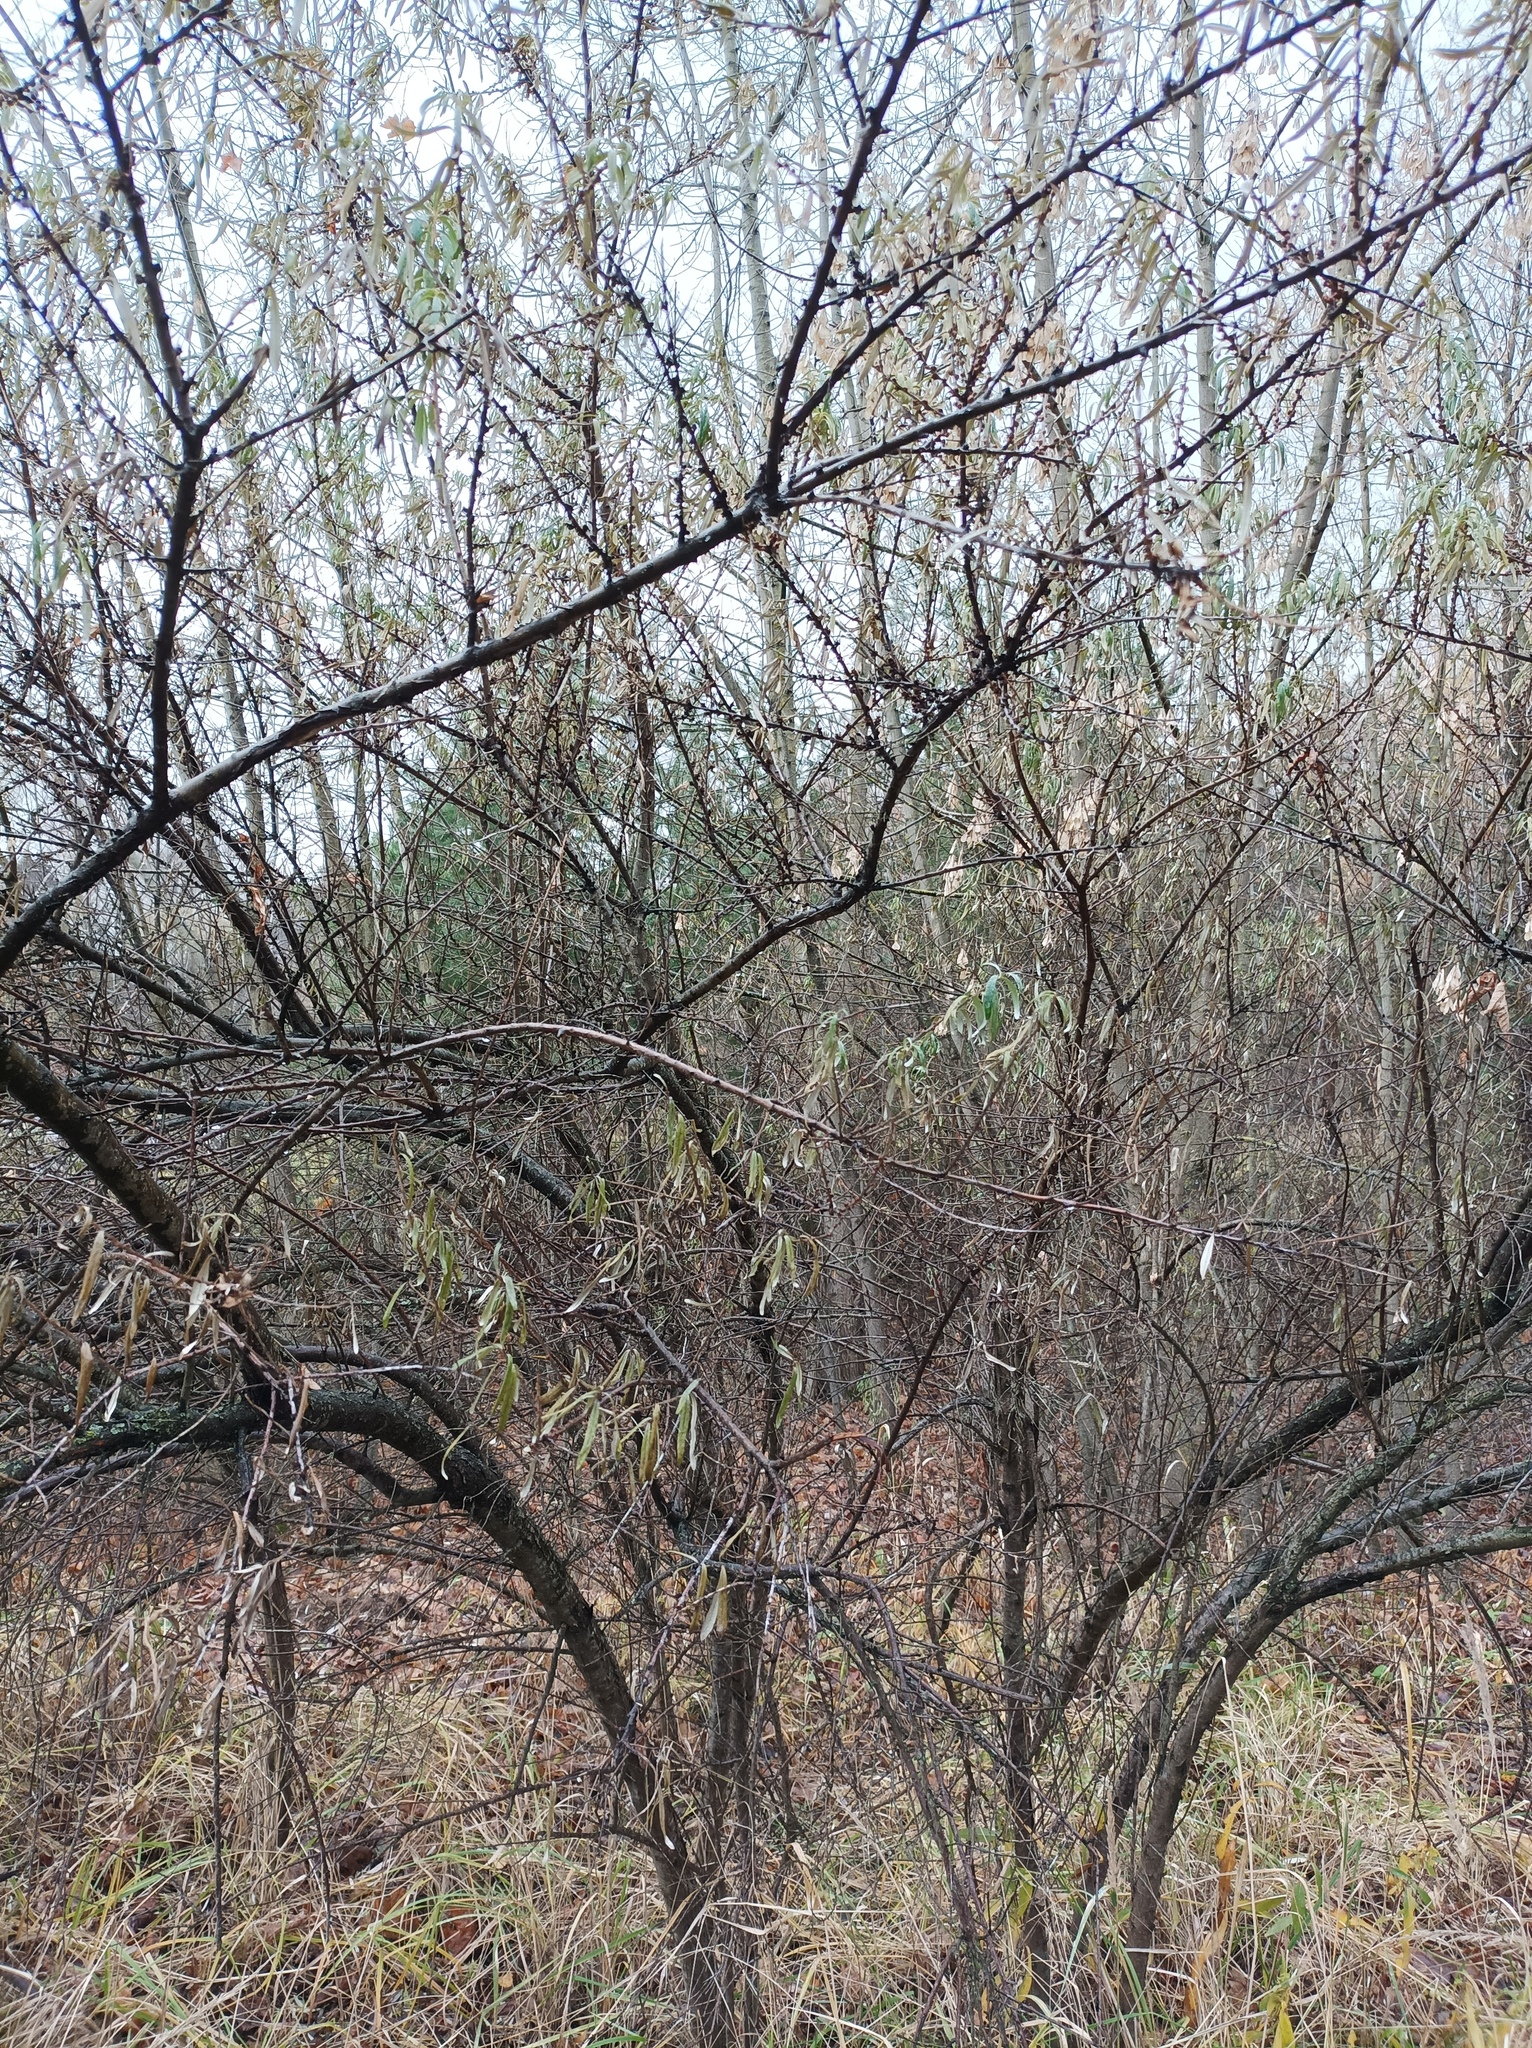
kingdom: Plantae
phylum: Tracheophyta
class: Magnoliopsida
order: Rosales
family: Elaeagnaceae
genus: Hippophae
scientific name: Hippophae rhamnoides
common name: Sea-buckthorn
